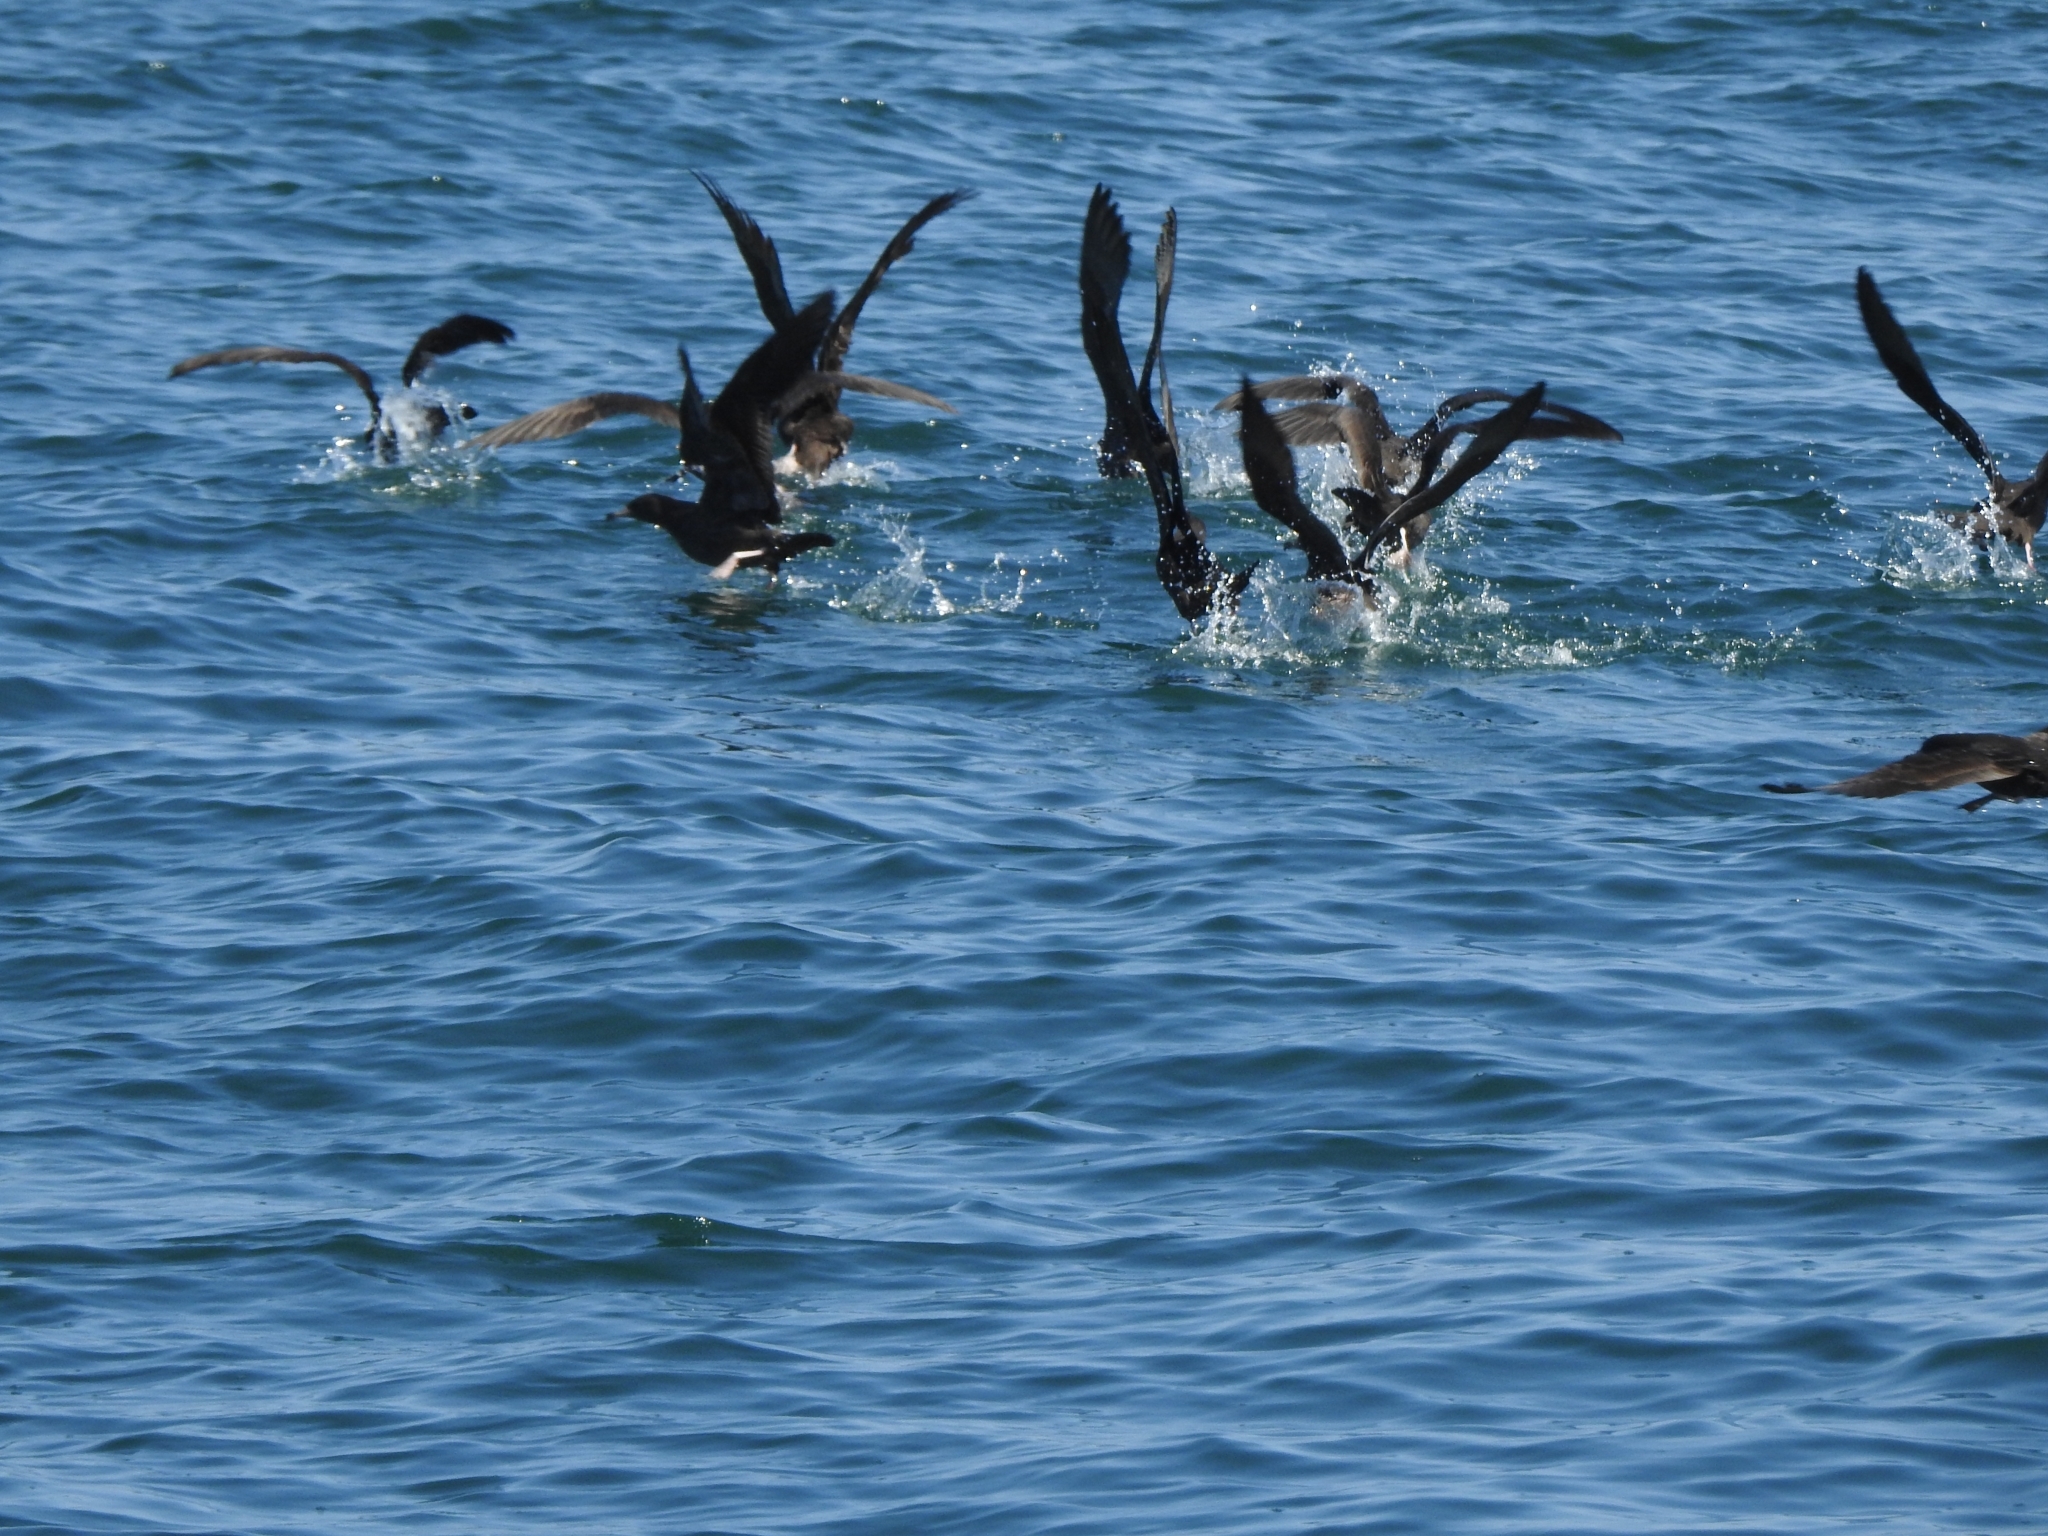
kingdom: Animalia
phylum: Chordata
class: Aves
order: Procellariiformes
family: Procellariidae
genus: Puffinus
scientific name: Puffinus carneipes
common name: Flesh-footed shearwater
